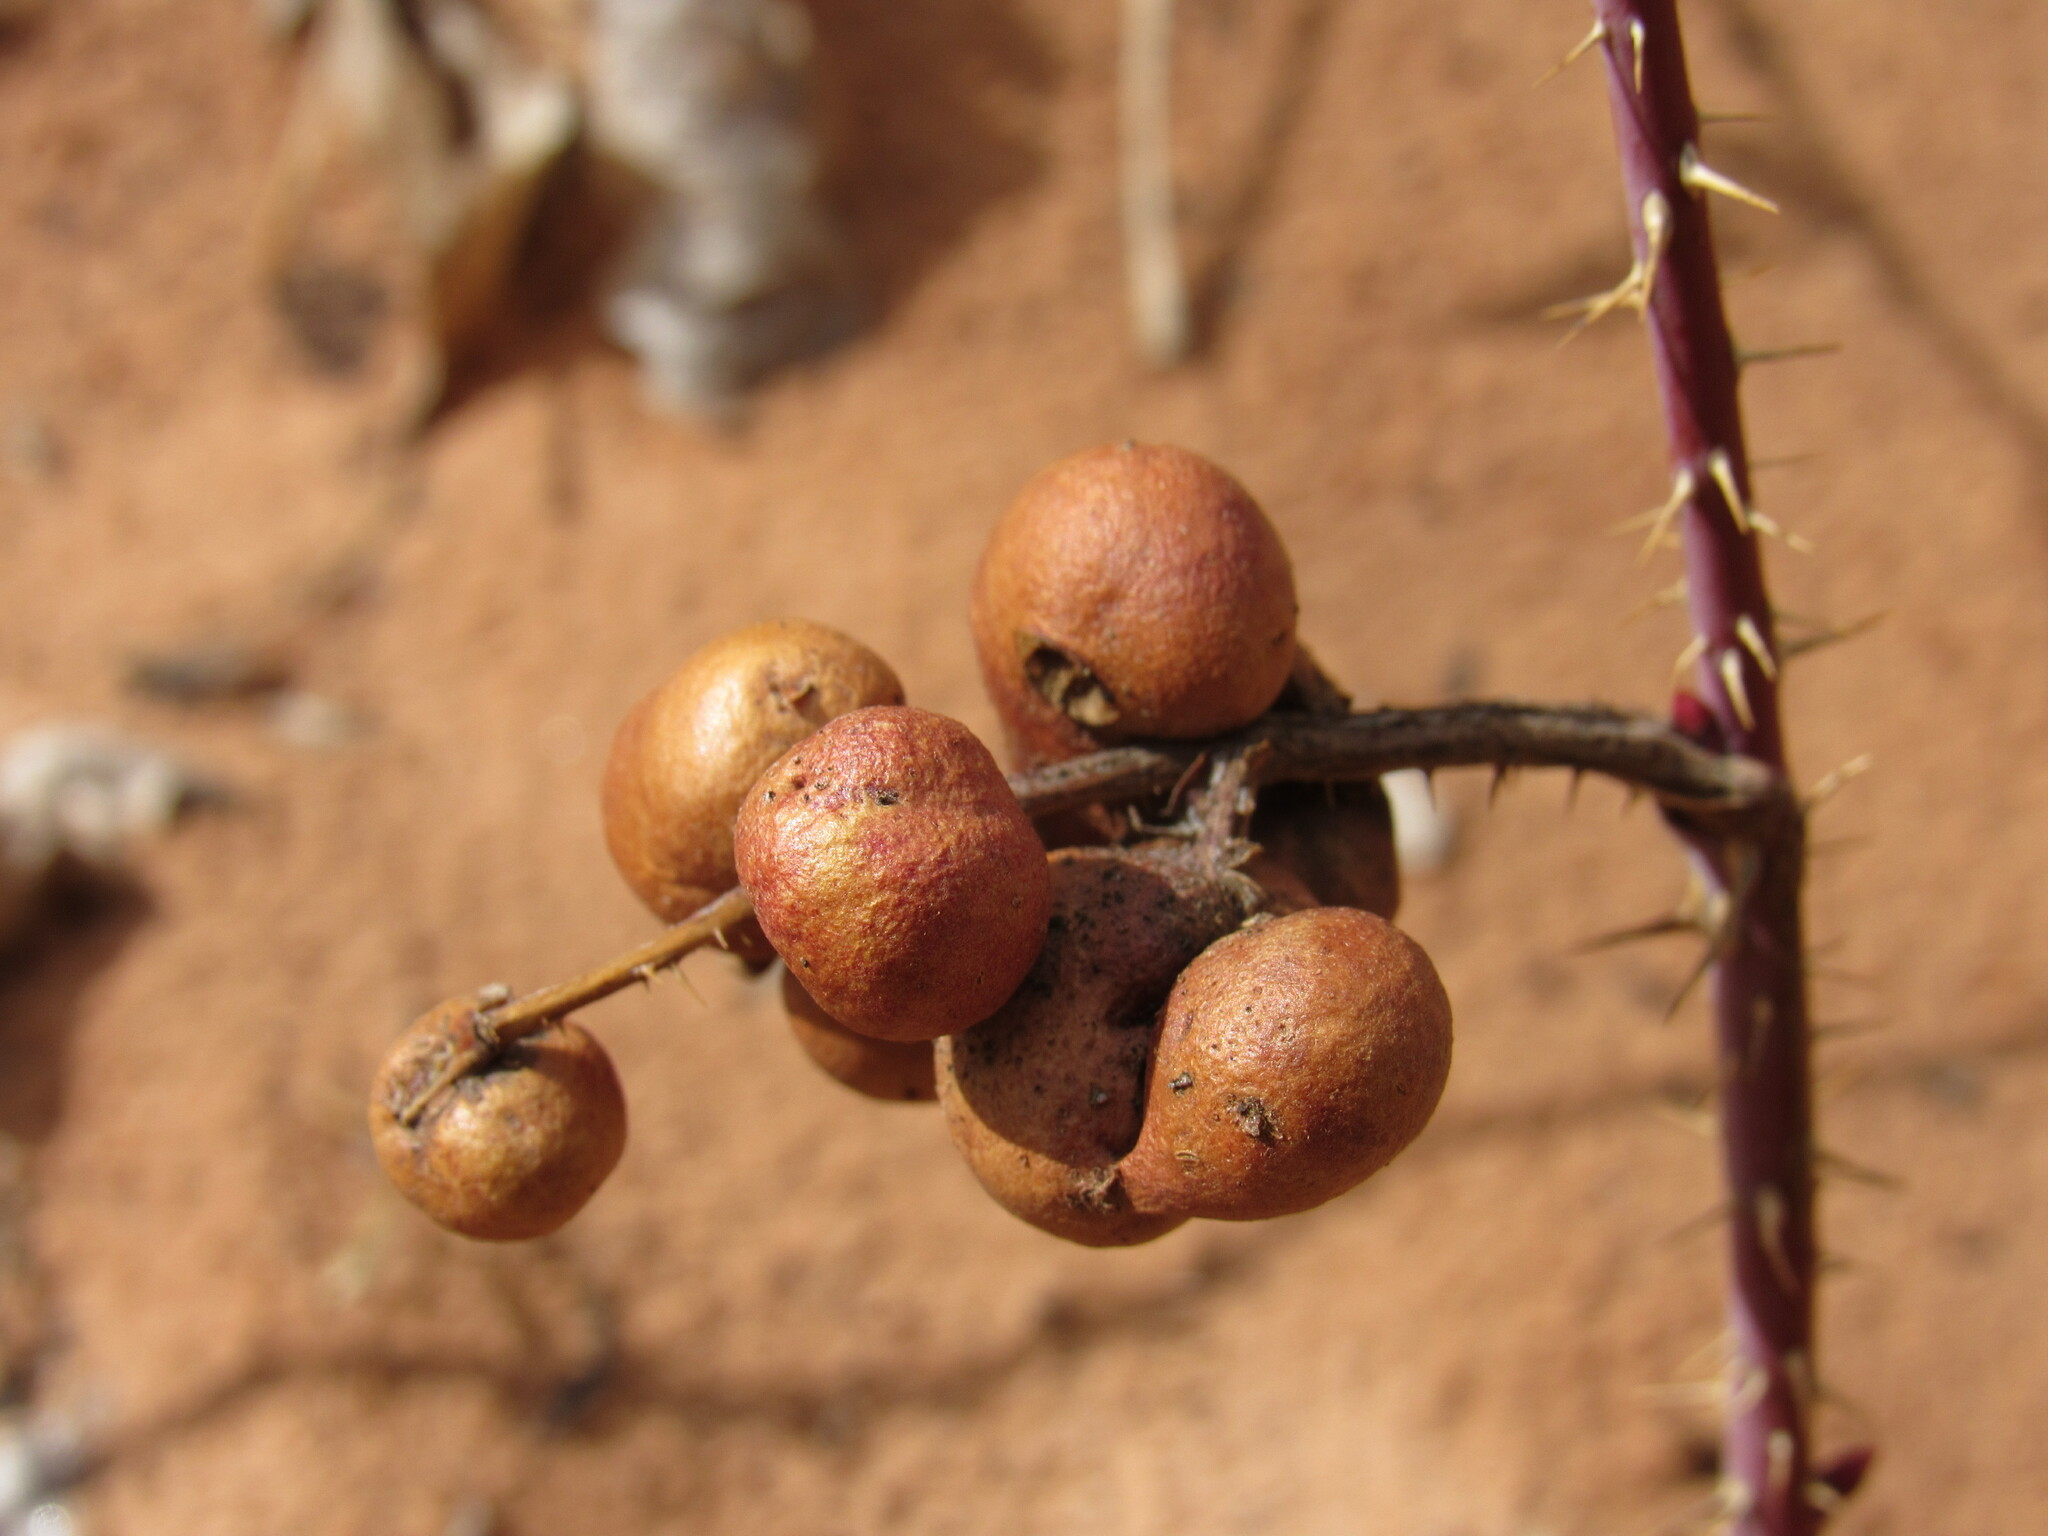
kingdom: Animalia
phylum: Arthropoda
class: Insecta
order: Hymenoptera
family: Cynipidae
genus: Diplolepis
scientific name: Diplolepis ignota
